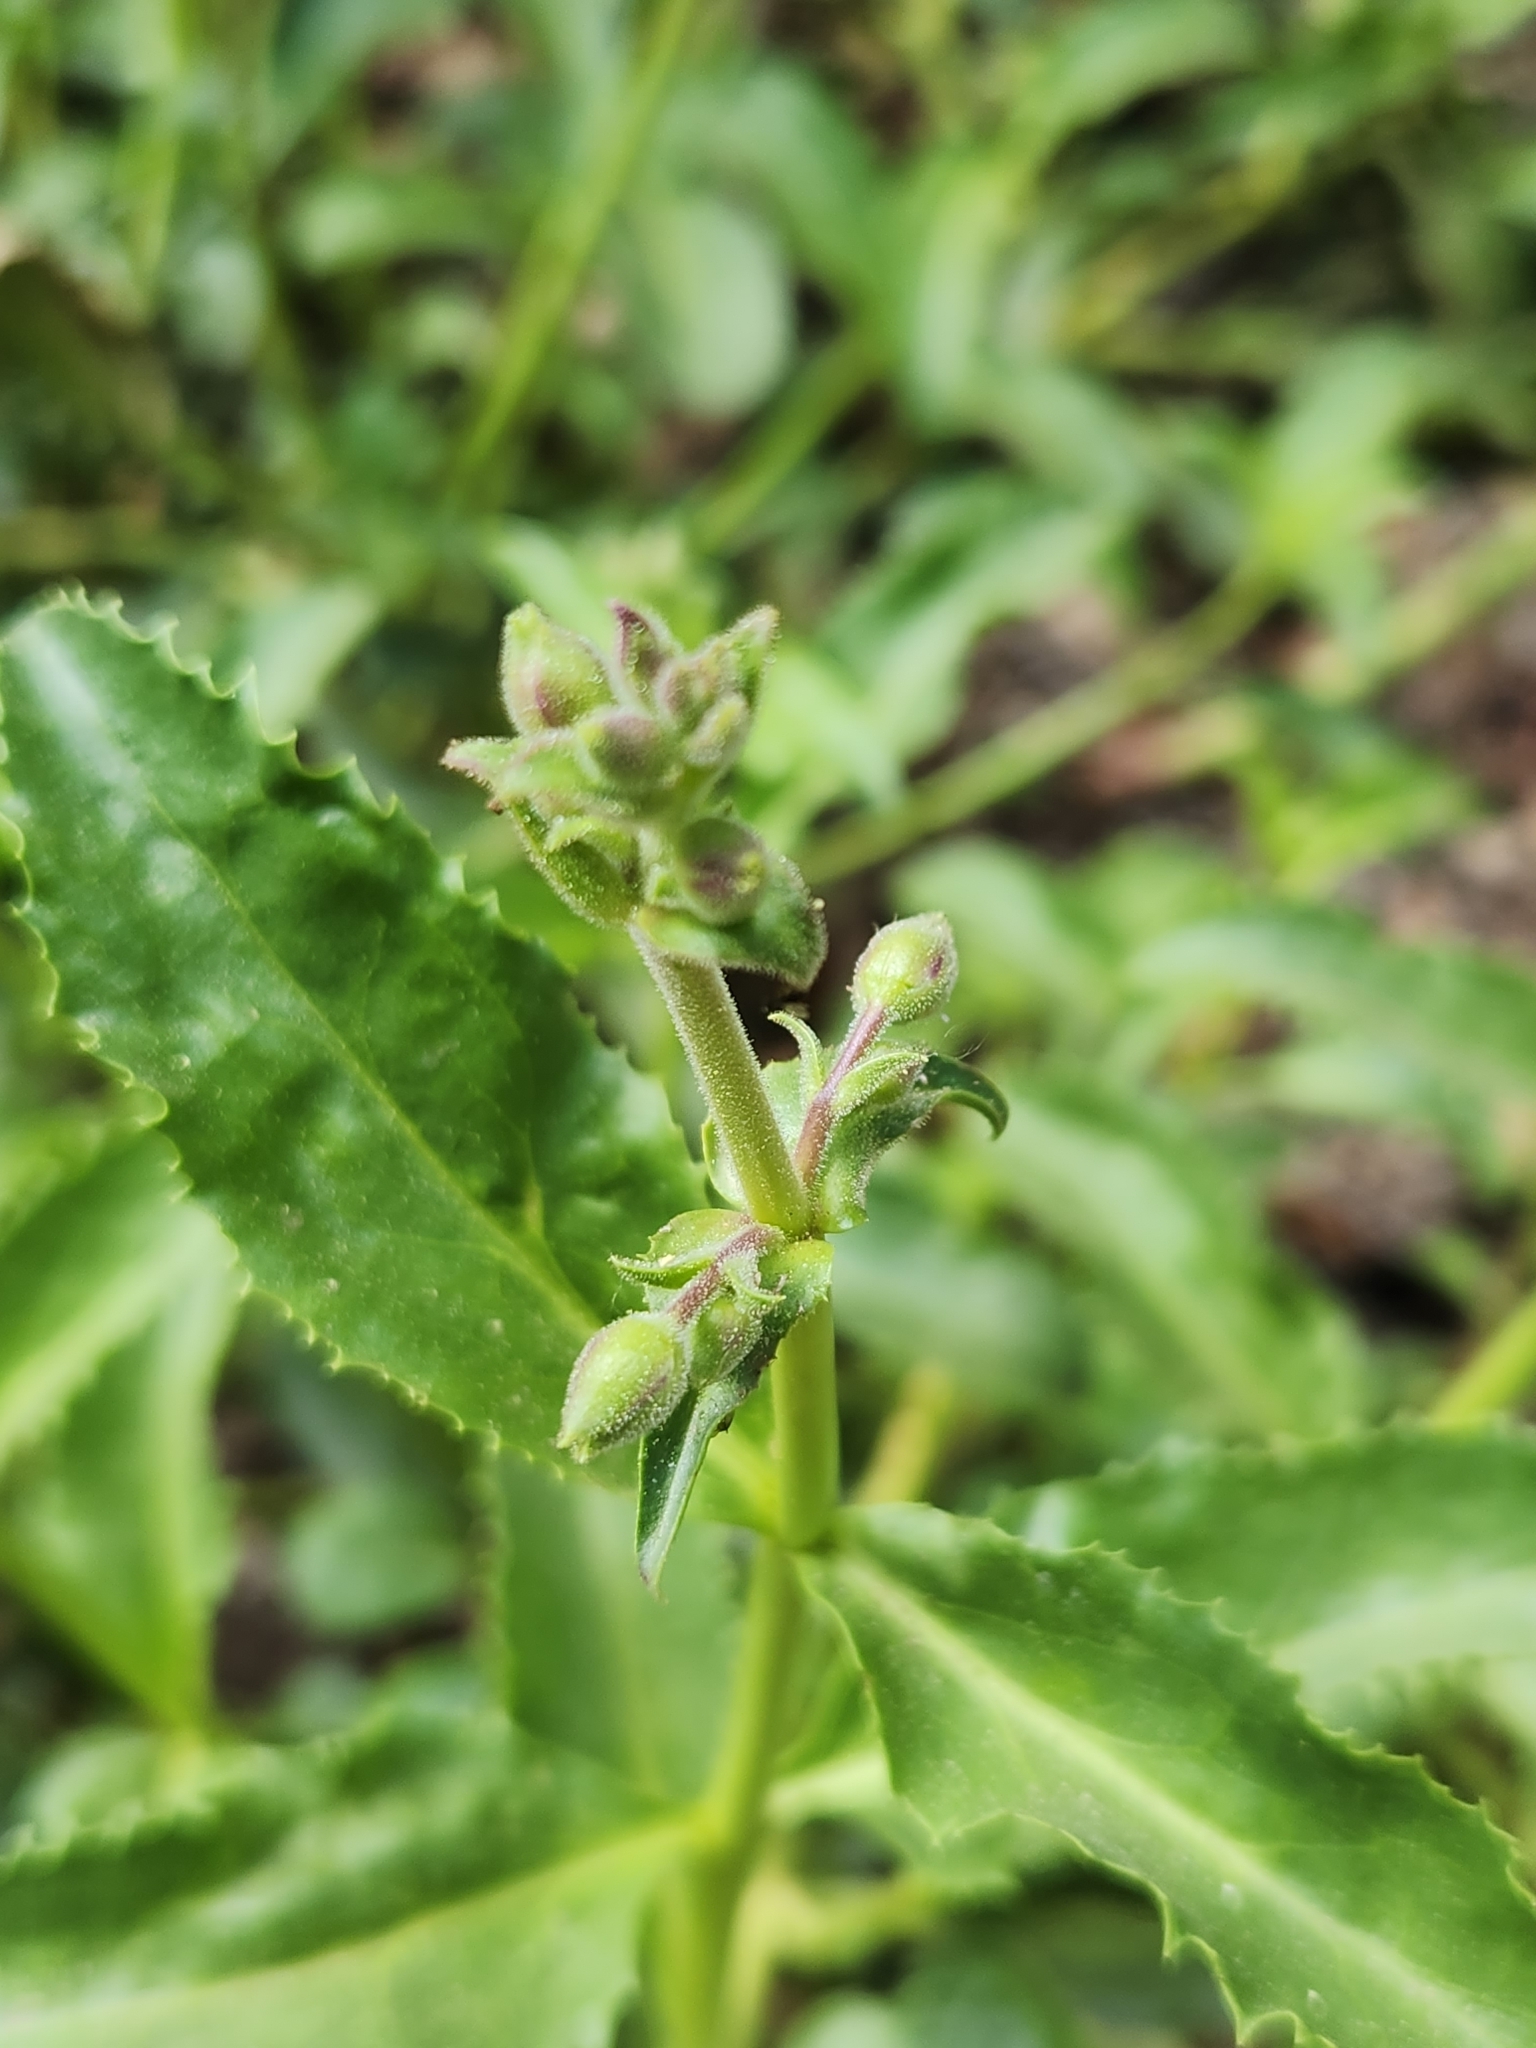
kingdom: Plantae
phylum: Tracheophyta
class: Magnoliopsida
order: Lamiales
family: Plantaginaceae
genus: Penstemon
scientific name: Penstemon grinnellii
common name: Grinnell's beardtongue
